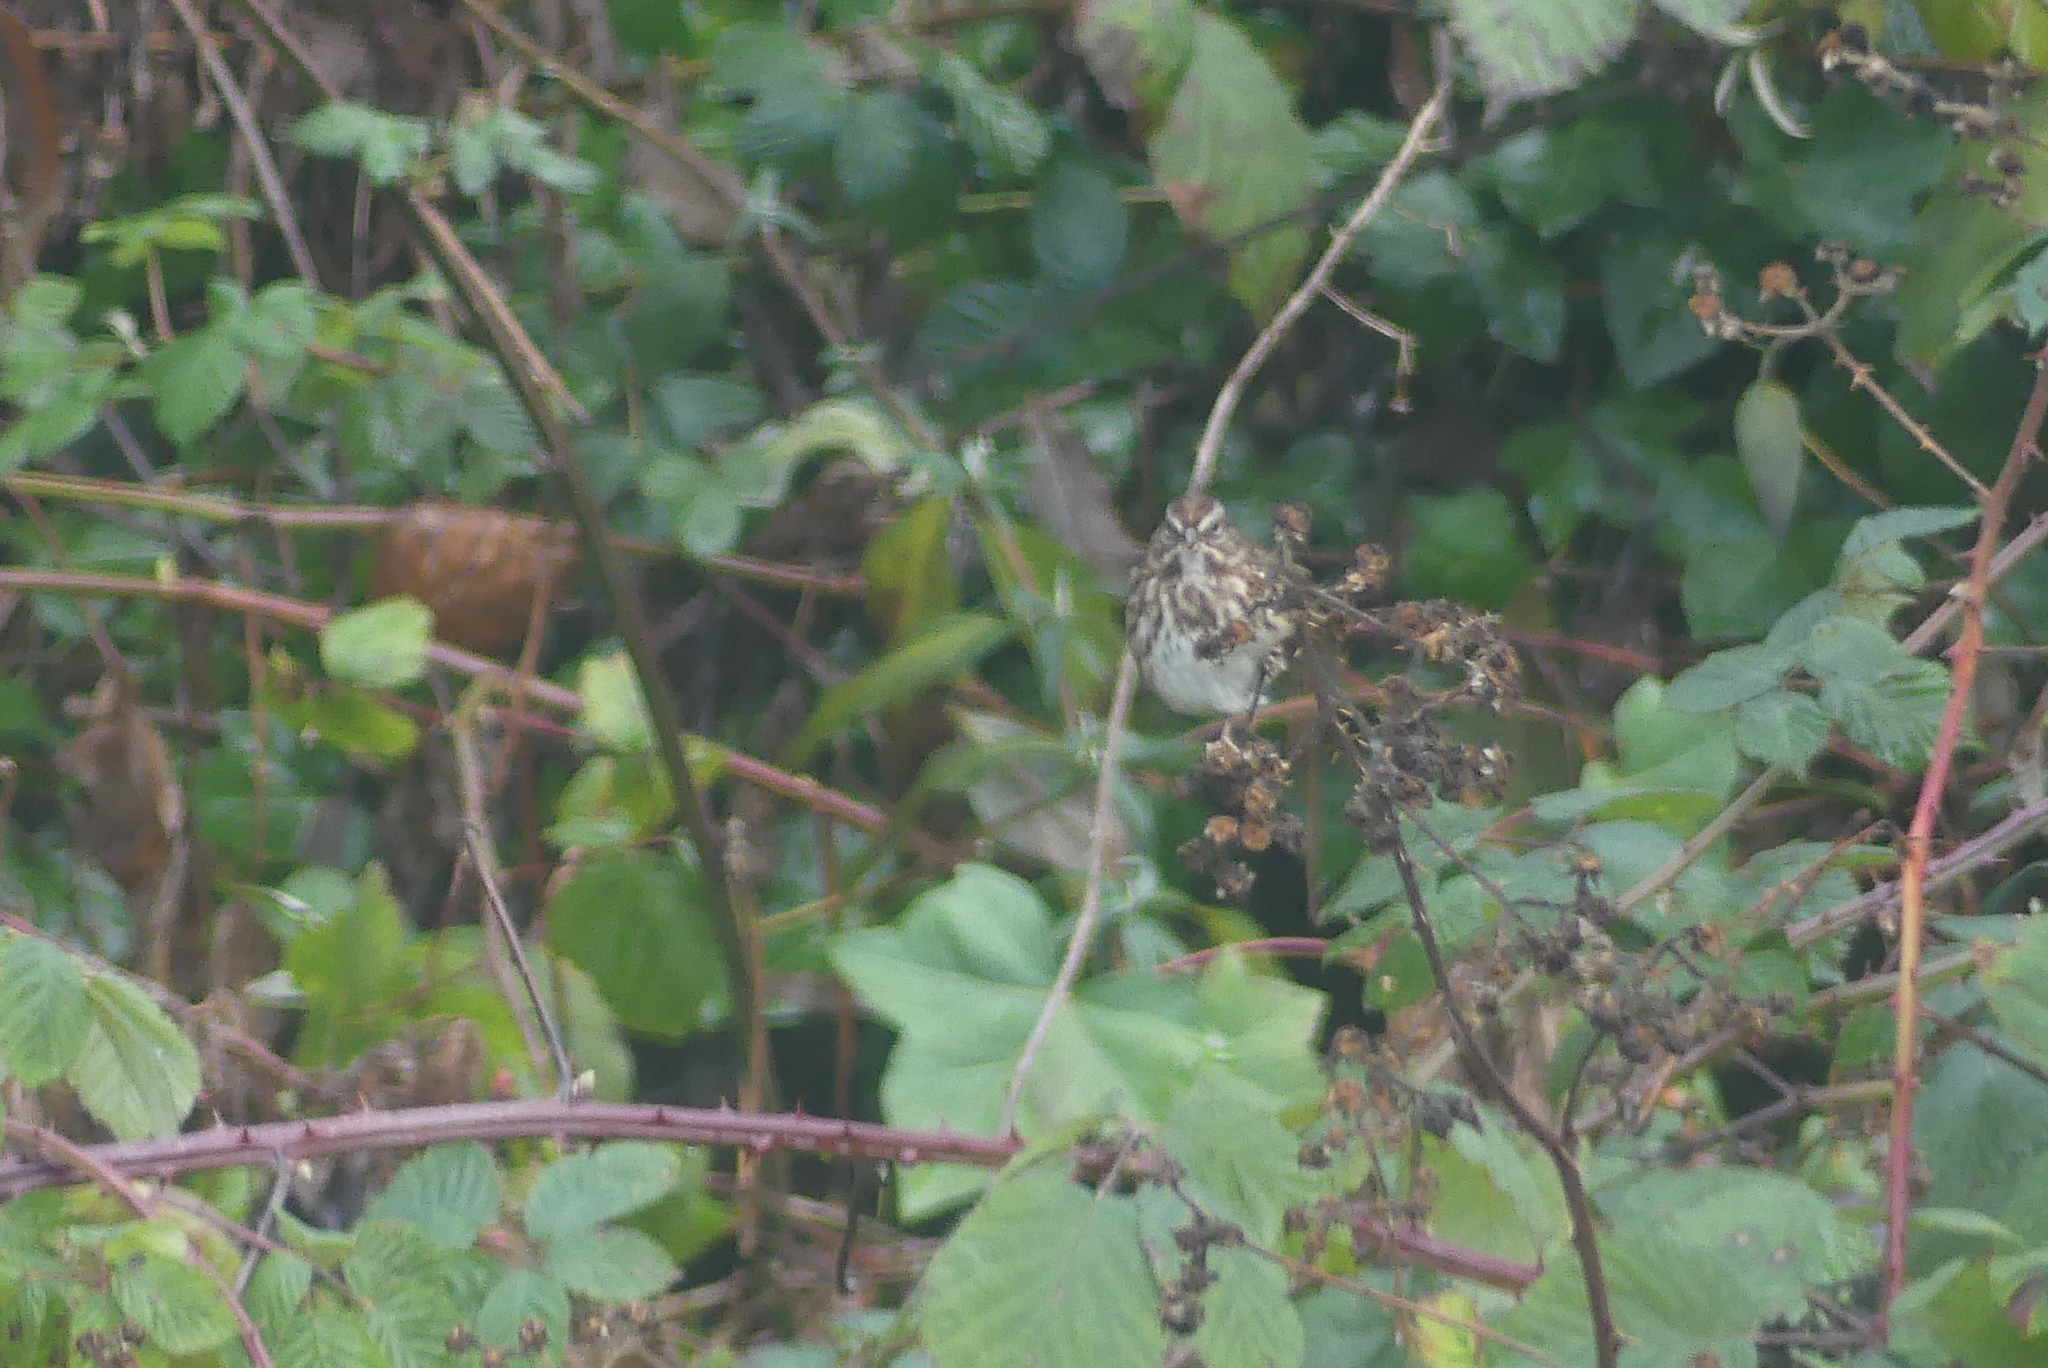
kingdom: Animalia
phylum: Chordata
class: Aves
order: Passeriformes
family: Passerellidae
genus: Melospiza
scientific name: Melospiza melodia
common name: Song sparrow
